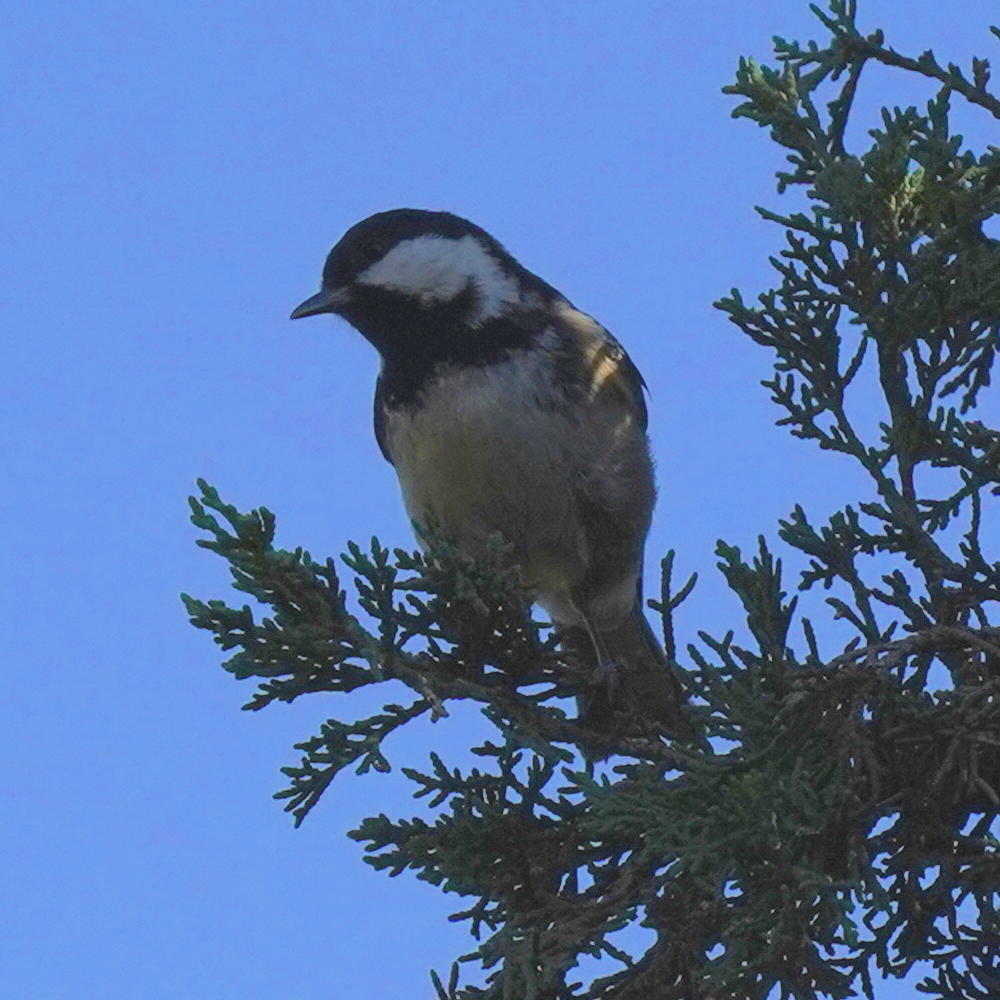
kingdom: Animalia
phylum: Chordata
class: Aves
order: Passeriformes
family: Paridae
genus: Periparus
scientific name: Periparus ater
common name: Coal tit
